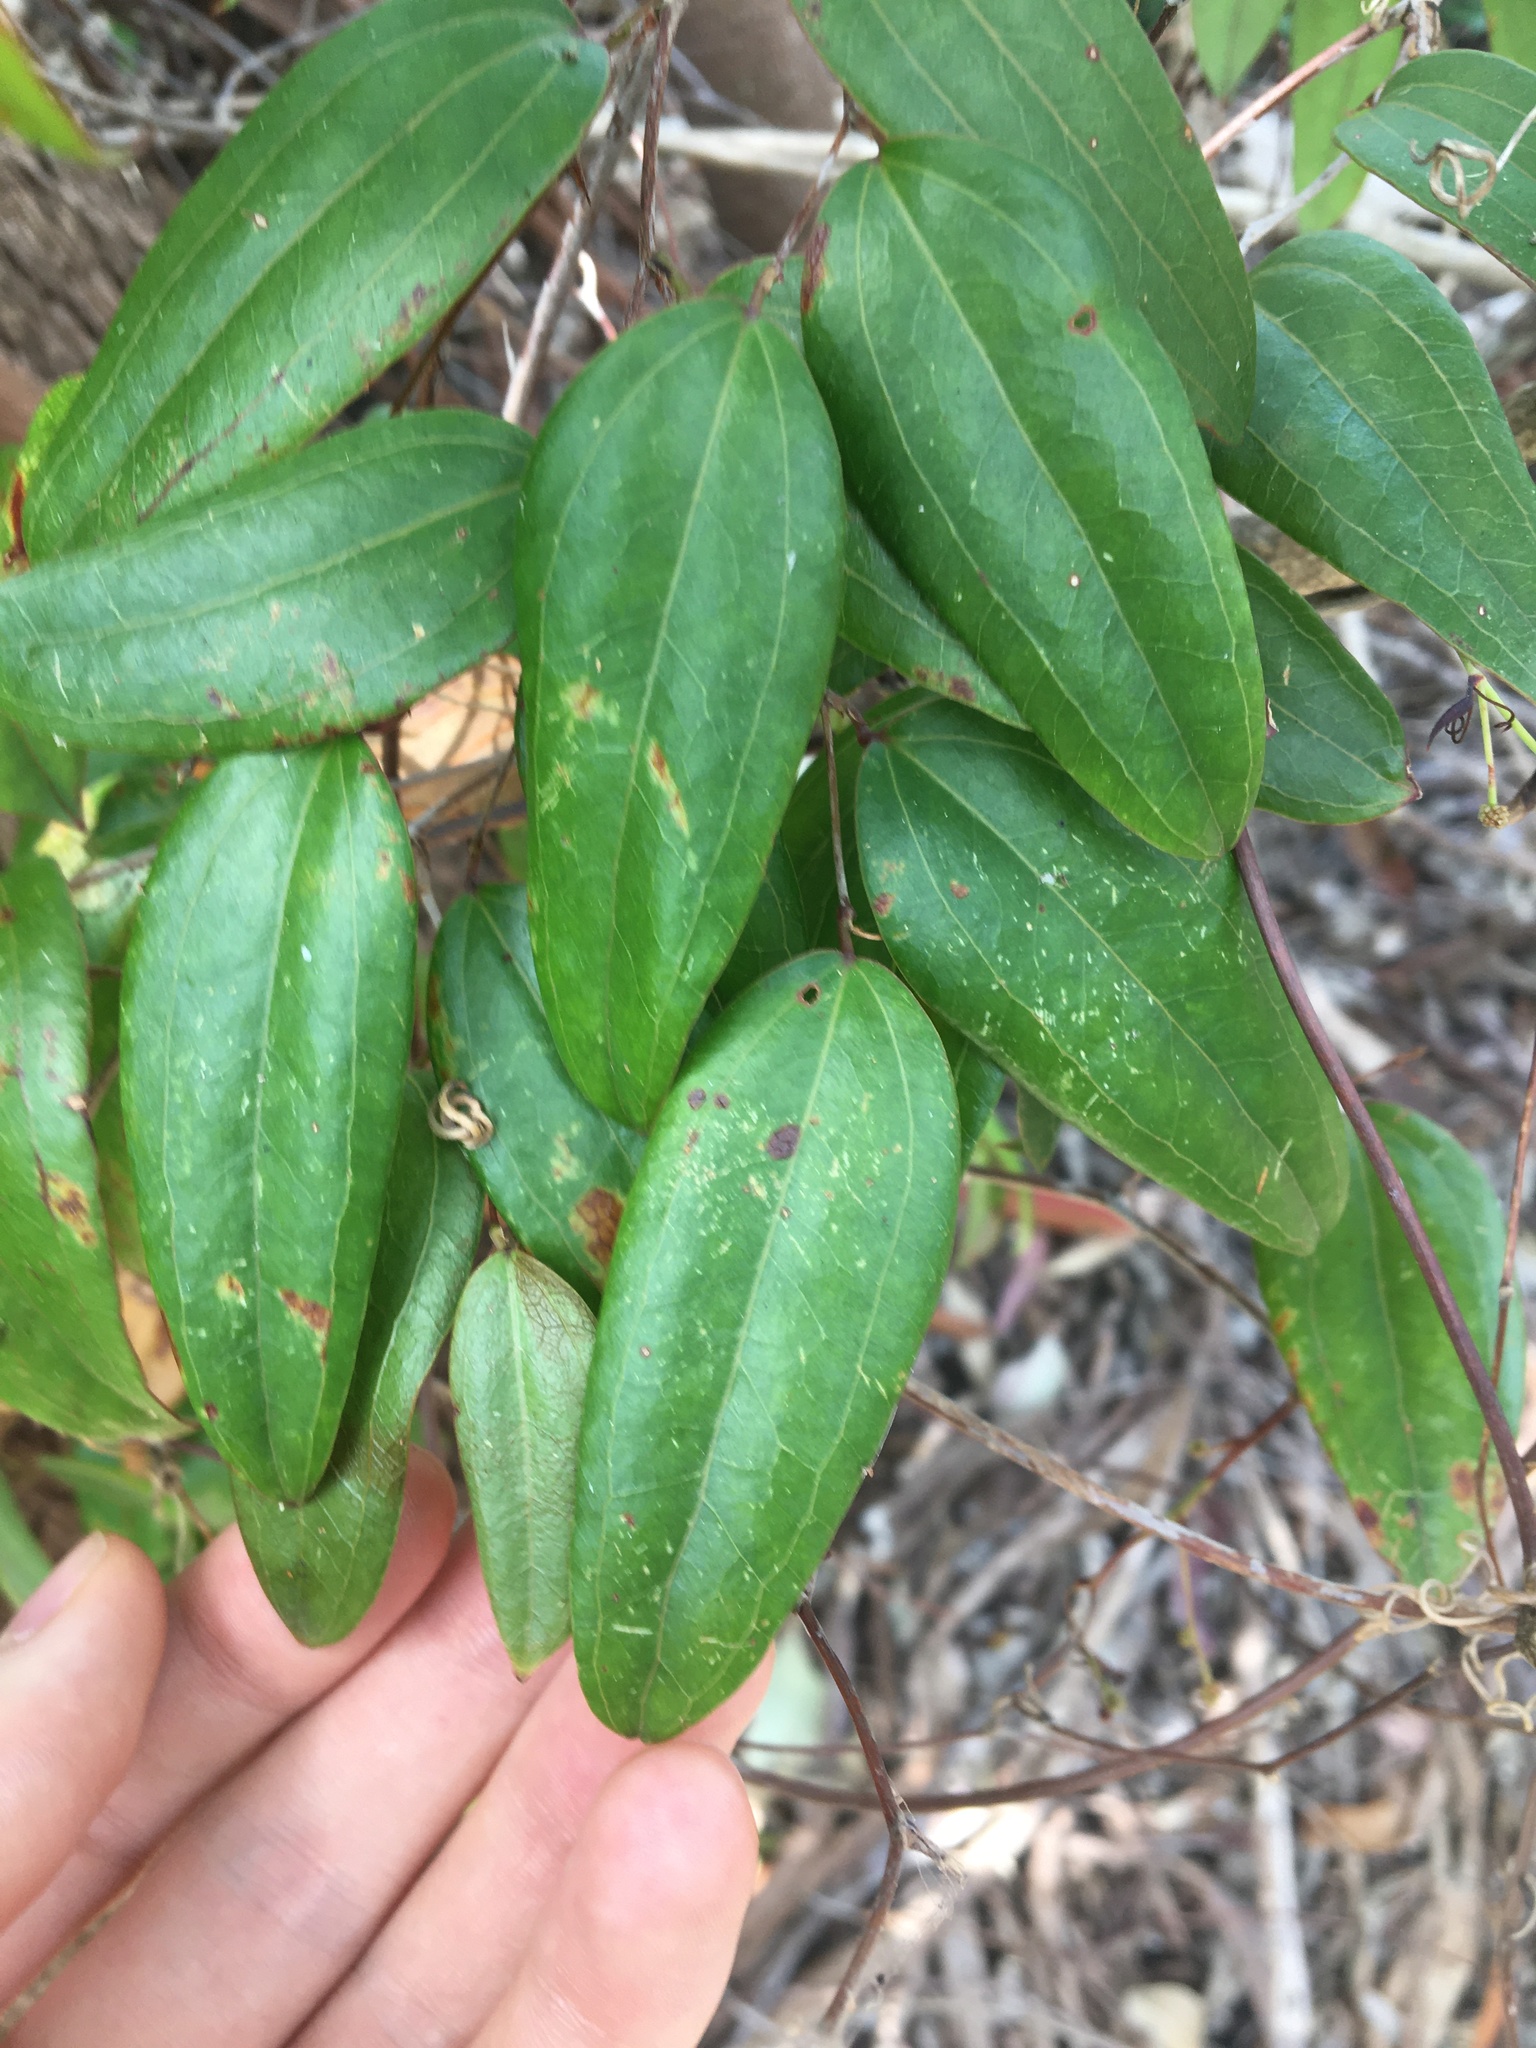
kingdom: Plantae
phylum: Tracheophyta
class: Liliopsida
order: Liliales
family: Smilacaceae
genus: Smilax
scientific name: Smilax glyciphylla
